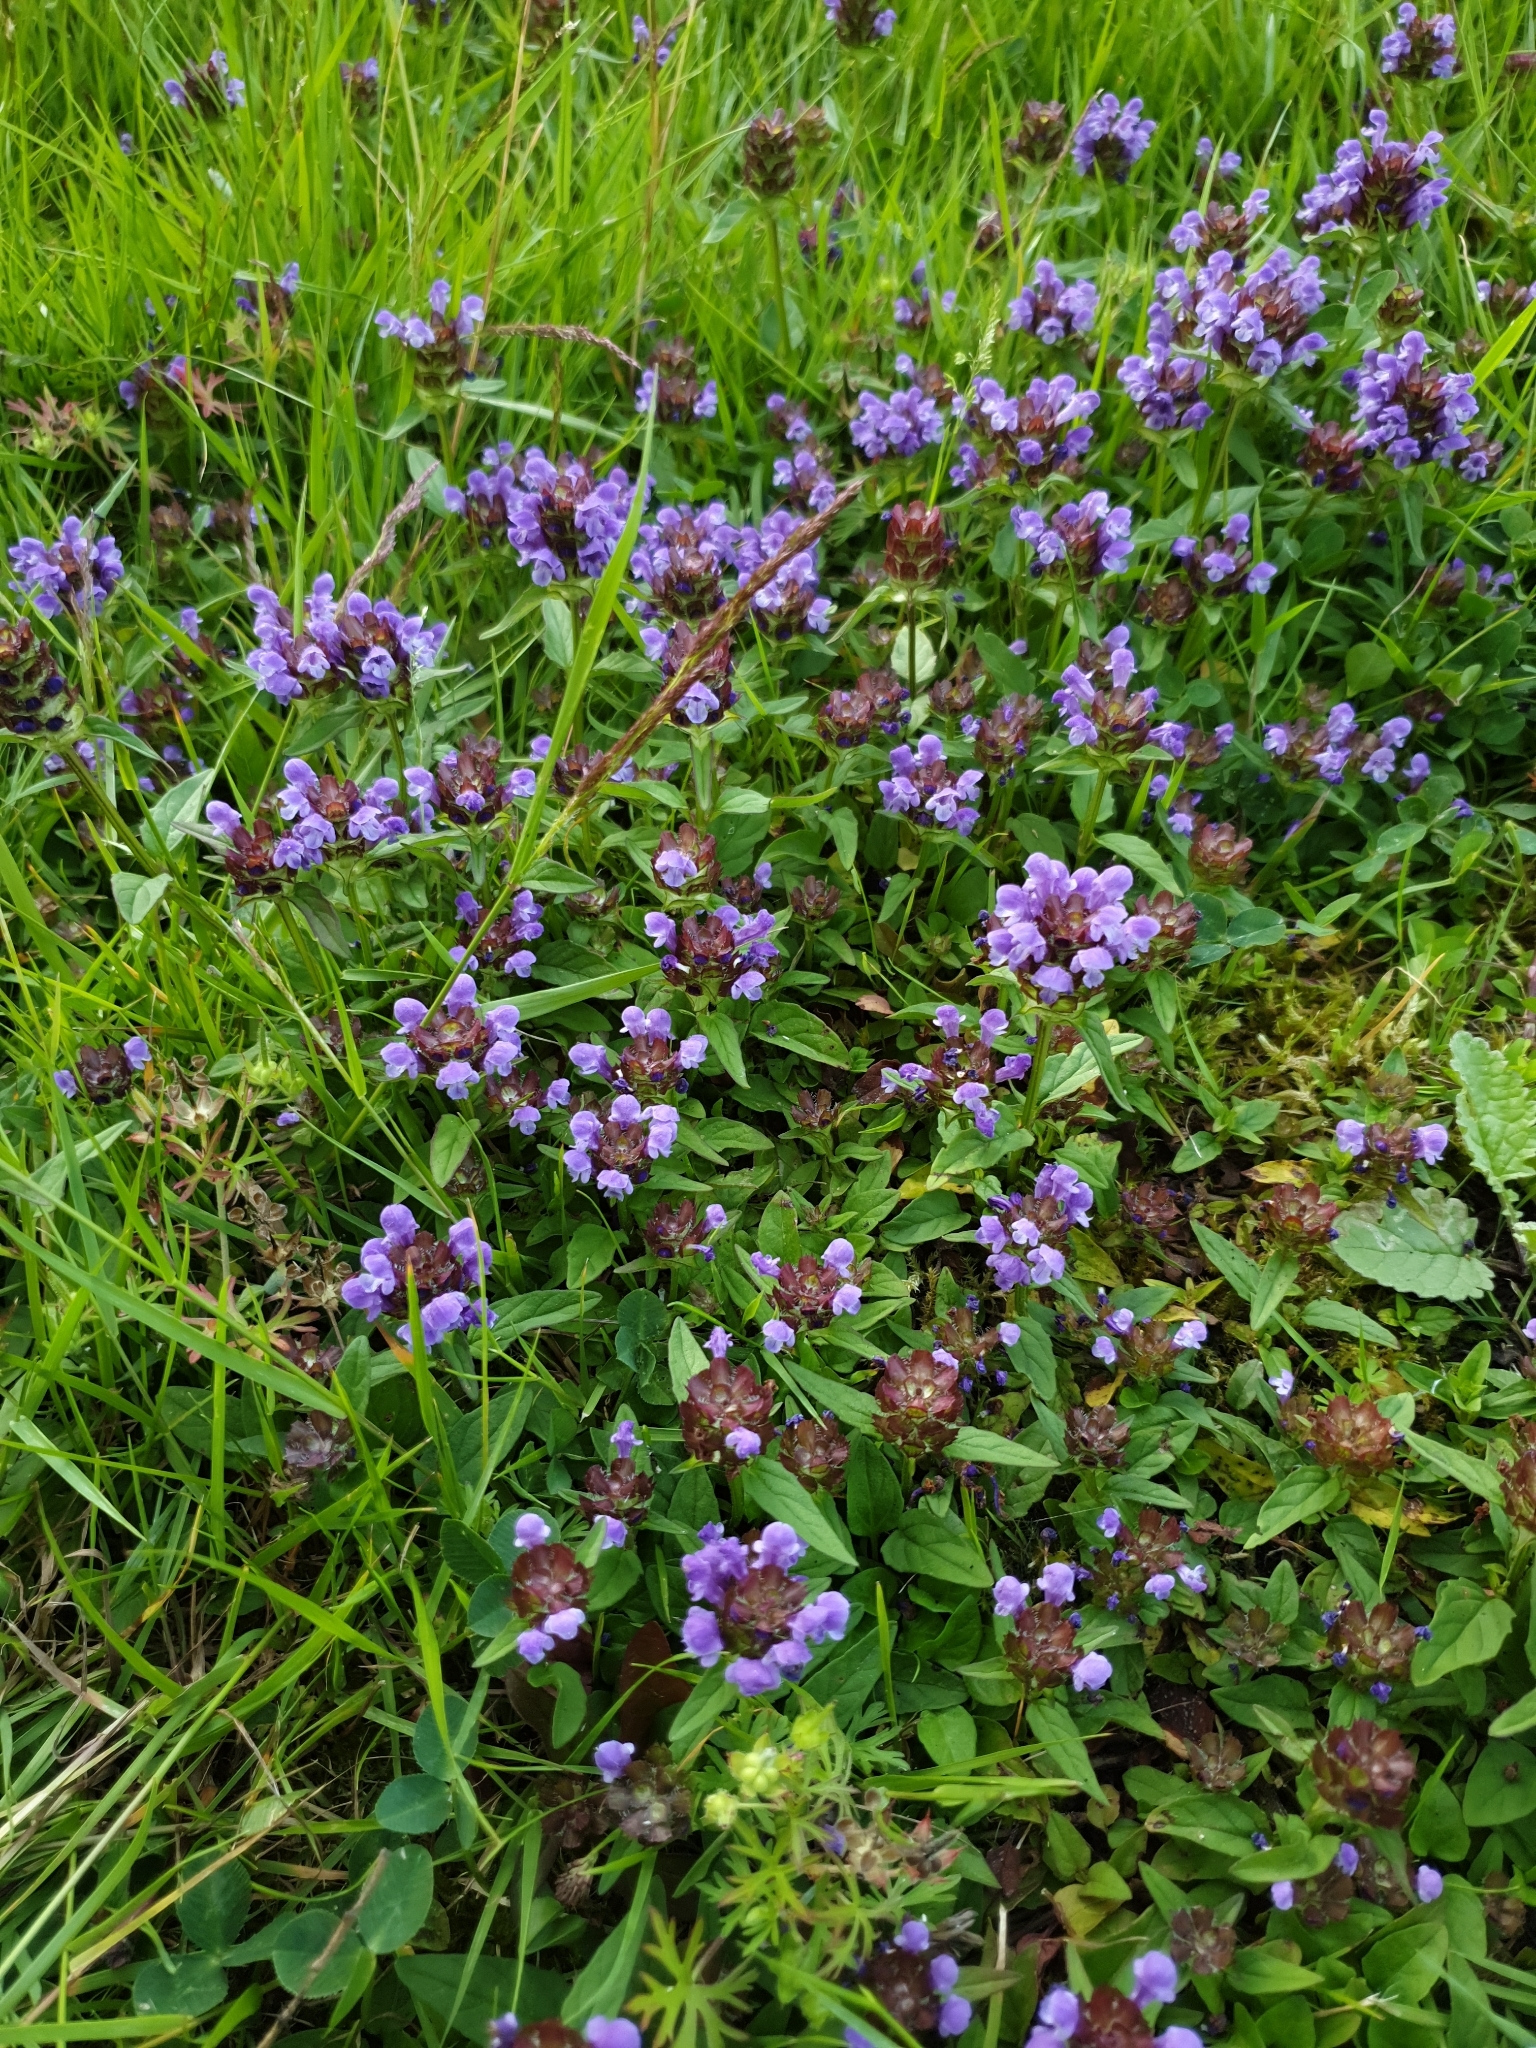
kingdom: Plantae
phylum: Tracheophyta
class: Magnoliopsida
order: Lamiales
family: Lamiaceae
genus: Prunella
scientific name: Prunella vulgaris
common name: Heal-all
